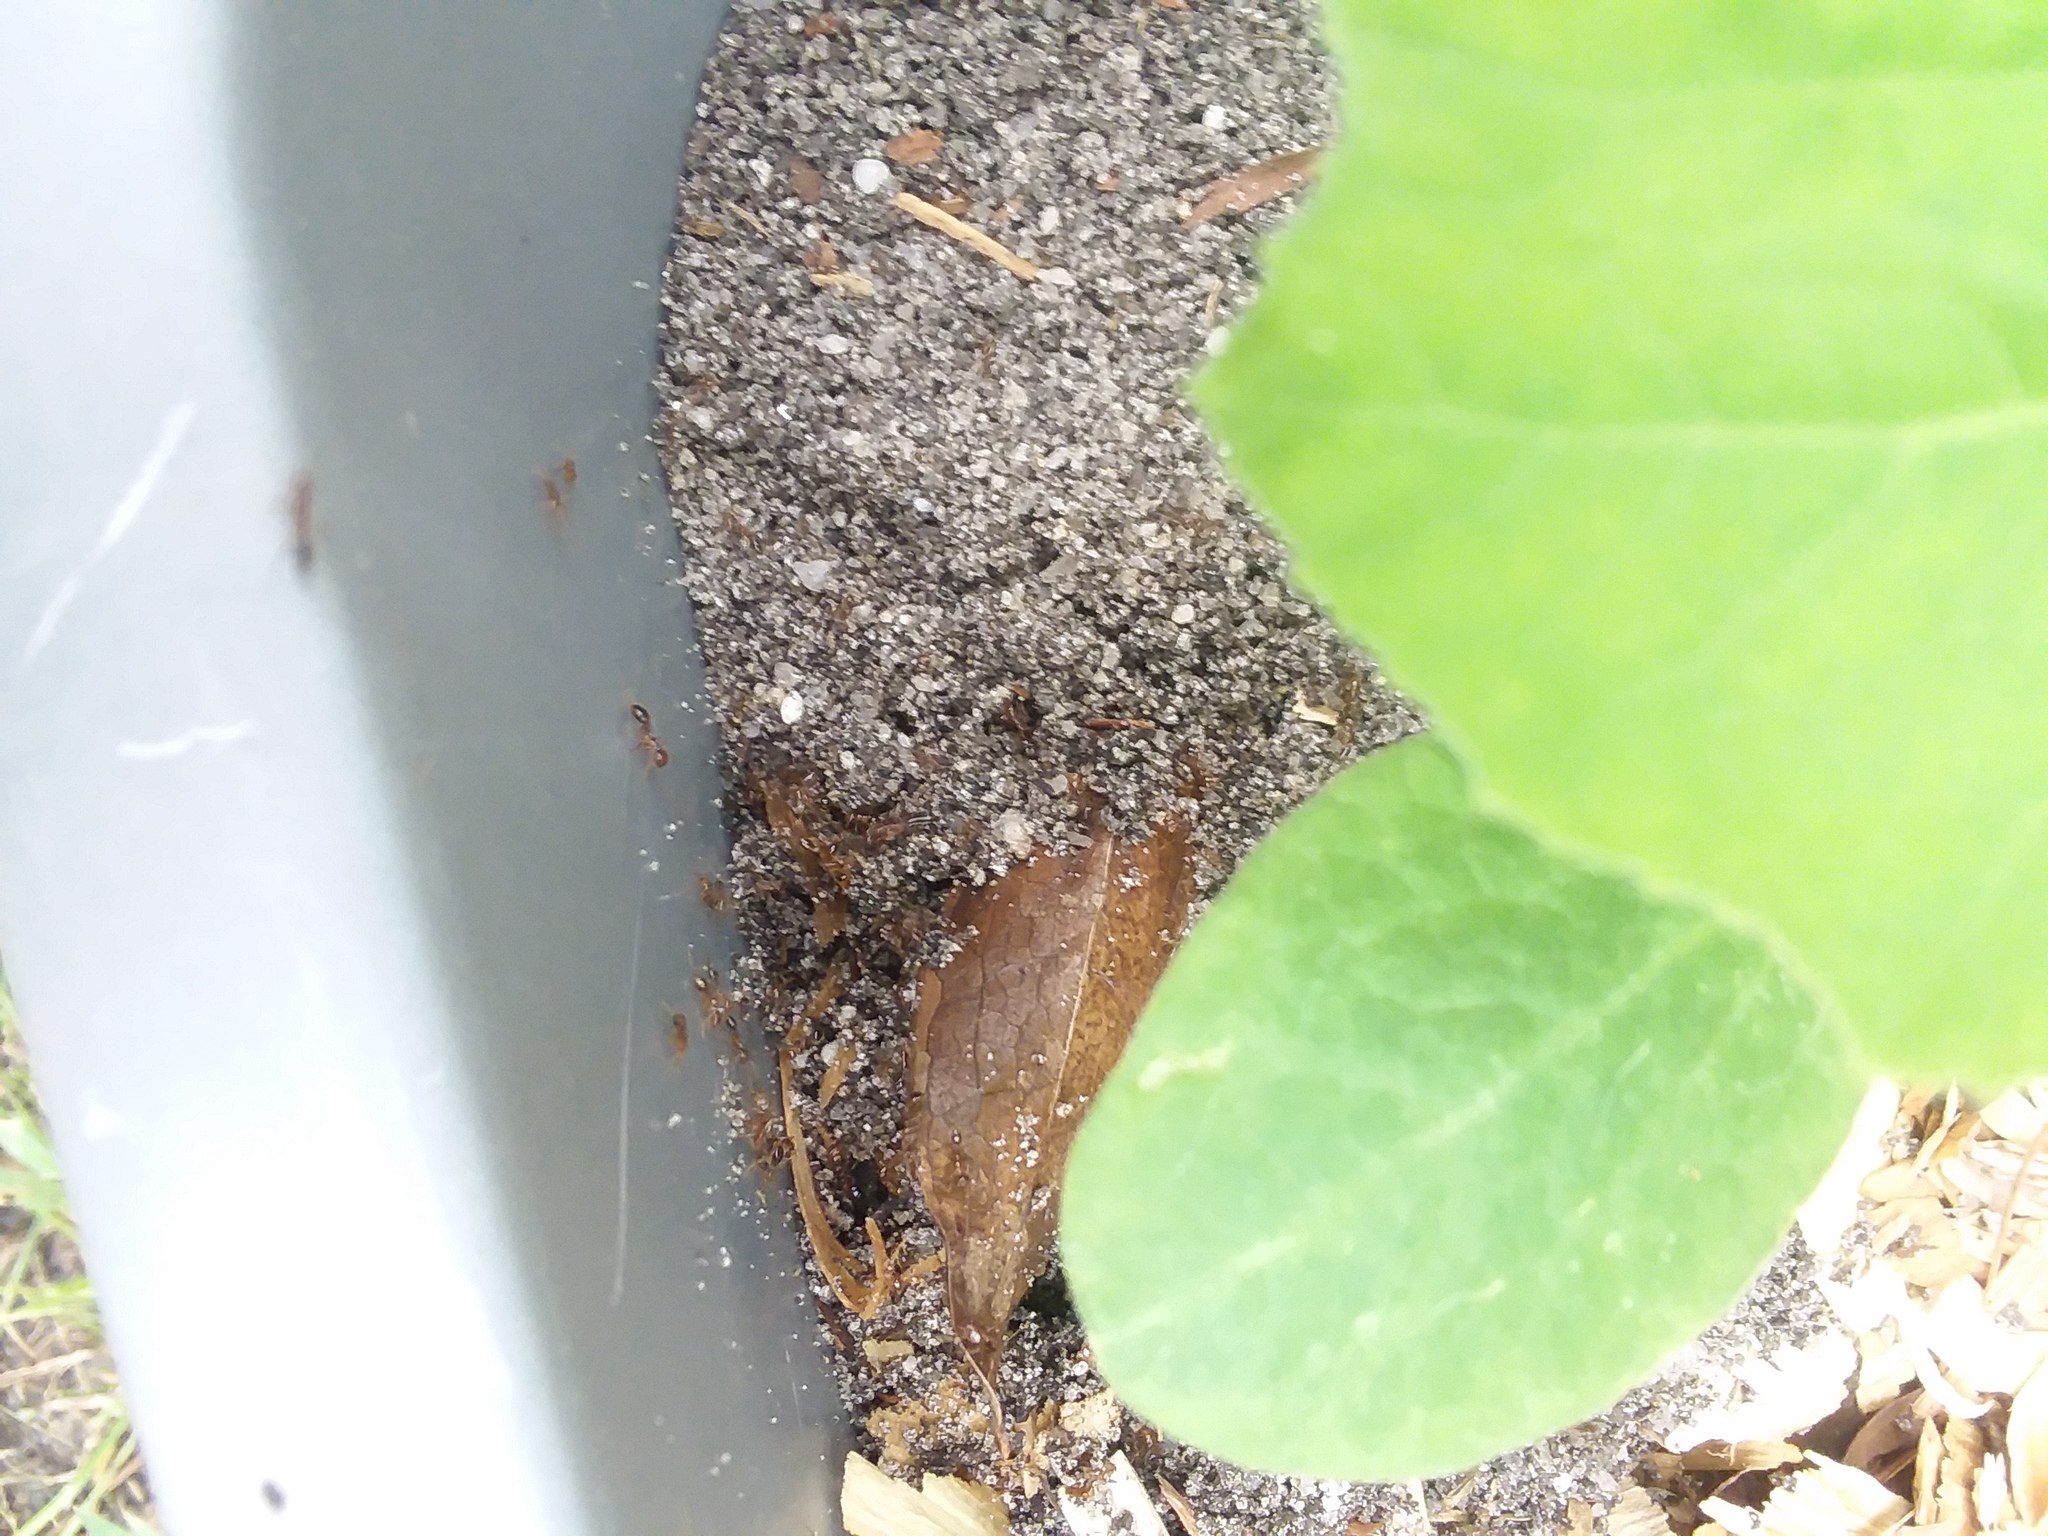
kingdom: Animalia
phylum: Arthropoda
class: Insecta
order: Hymenoptera
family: Formicidae
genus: Solenopsis
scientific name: Solenopsis invicta
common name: Red imported fire ant
